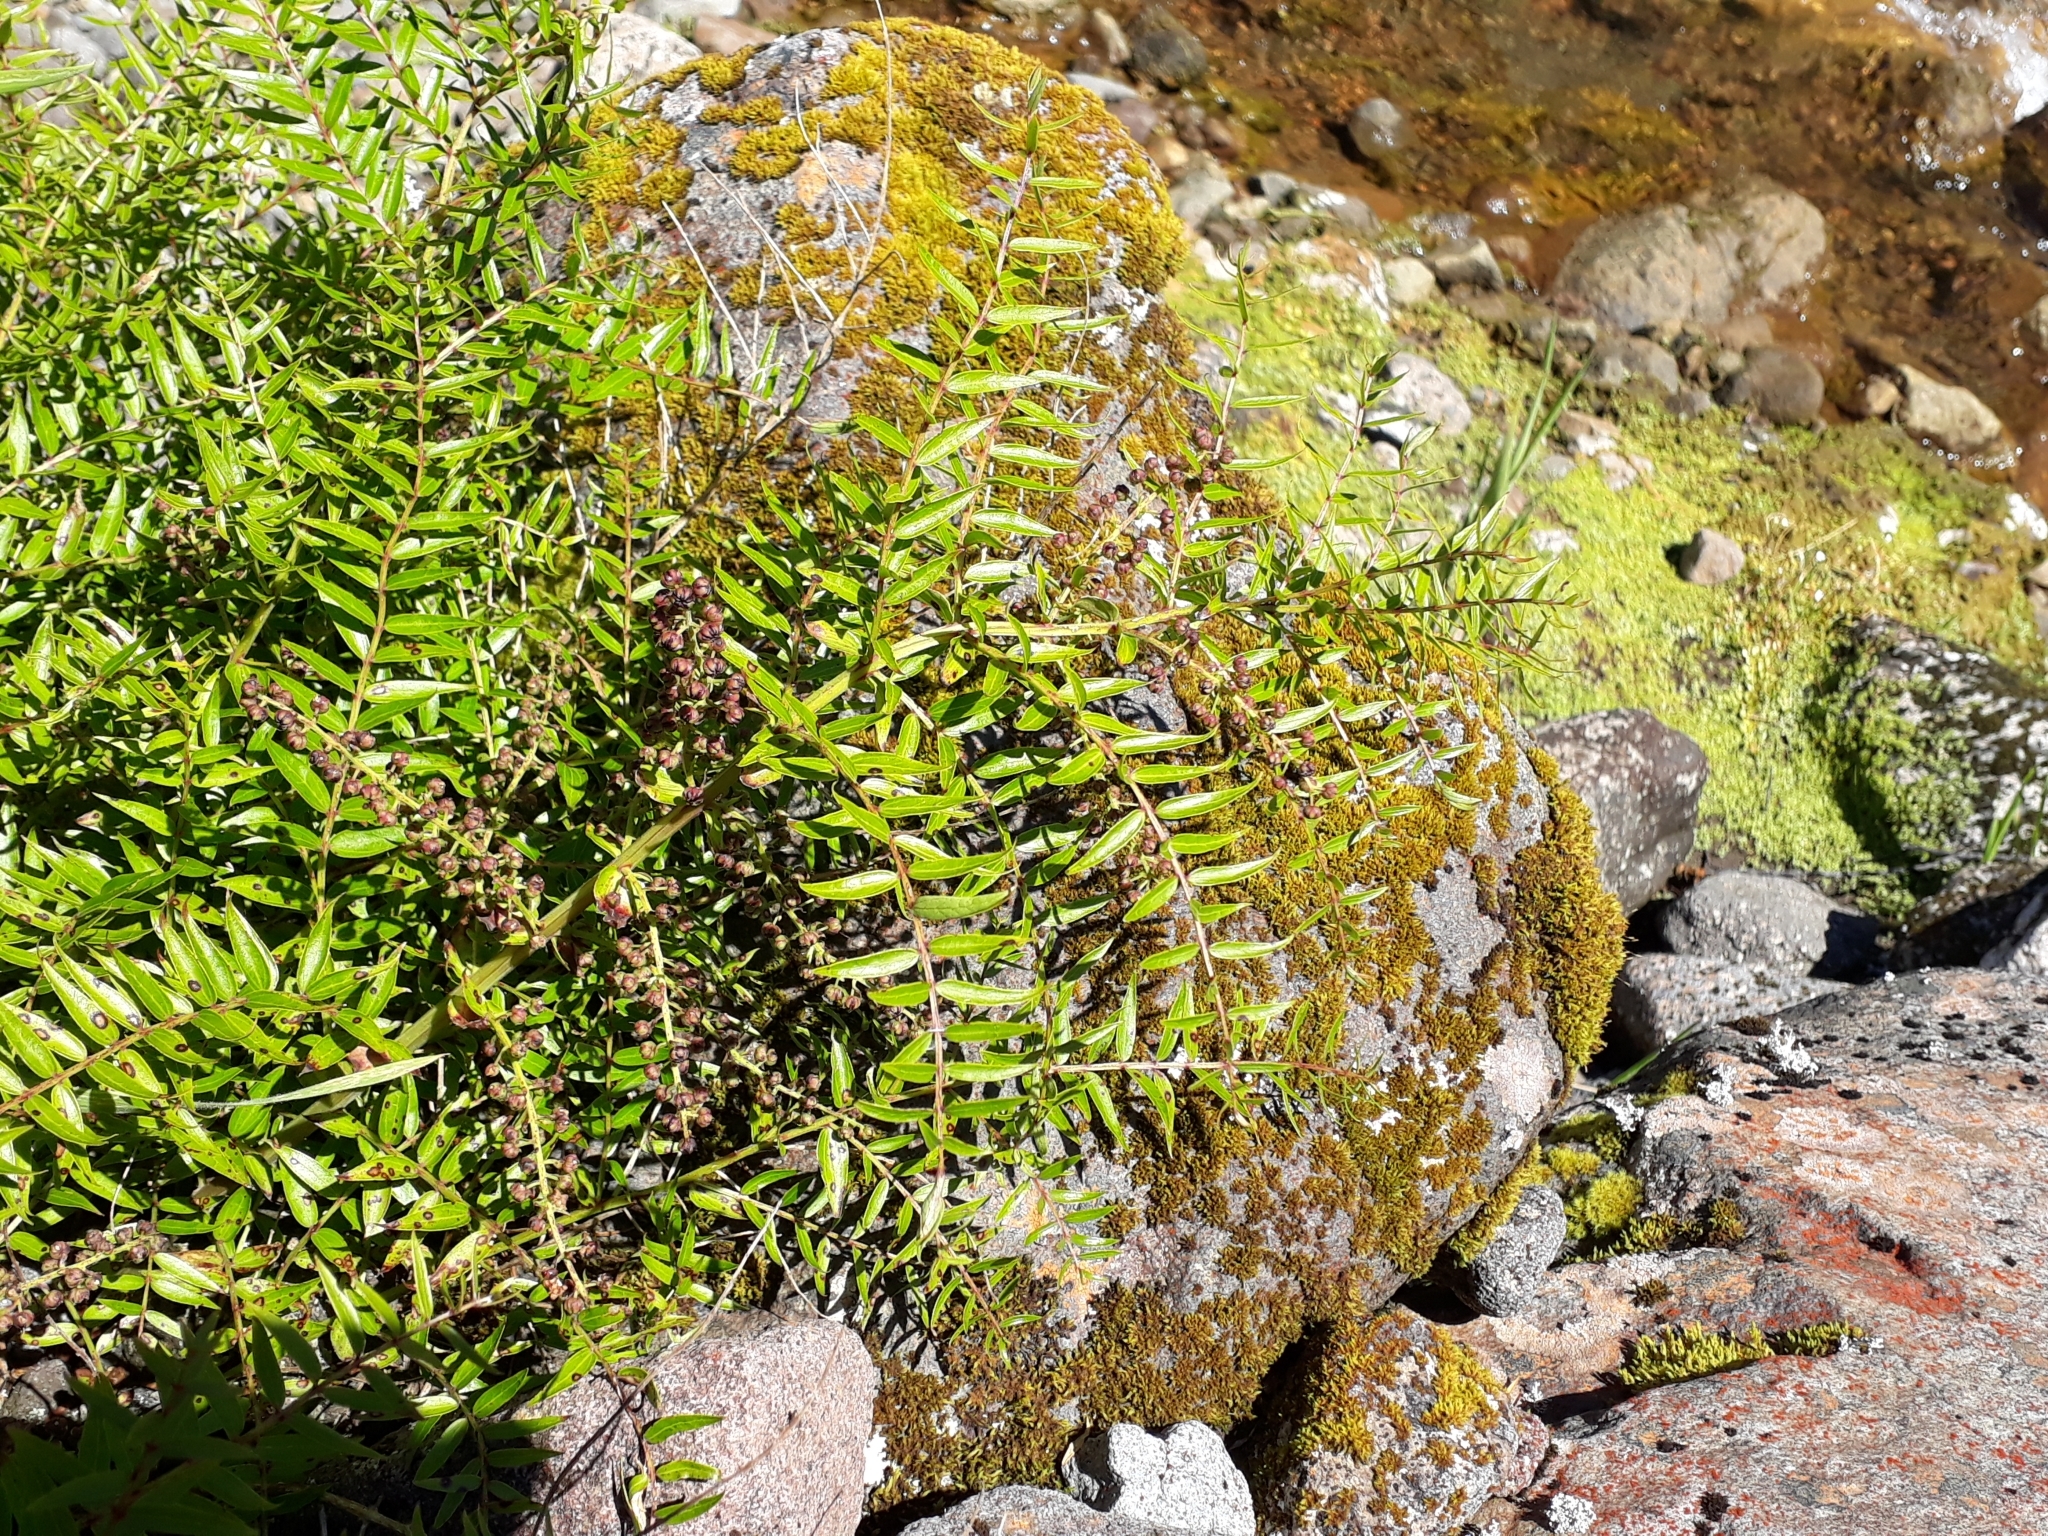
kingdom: Plantae
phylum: Tracheophyta
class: Magnoliopsida
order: Cucurbitales
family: Coriariaceae
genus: Coriaria
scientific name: Coriaria pteridoides
